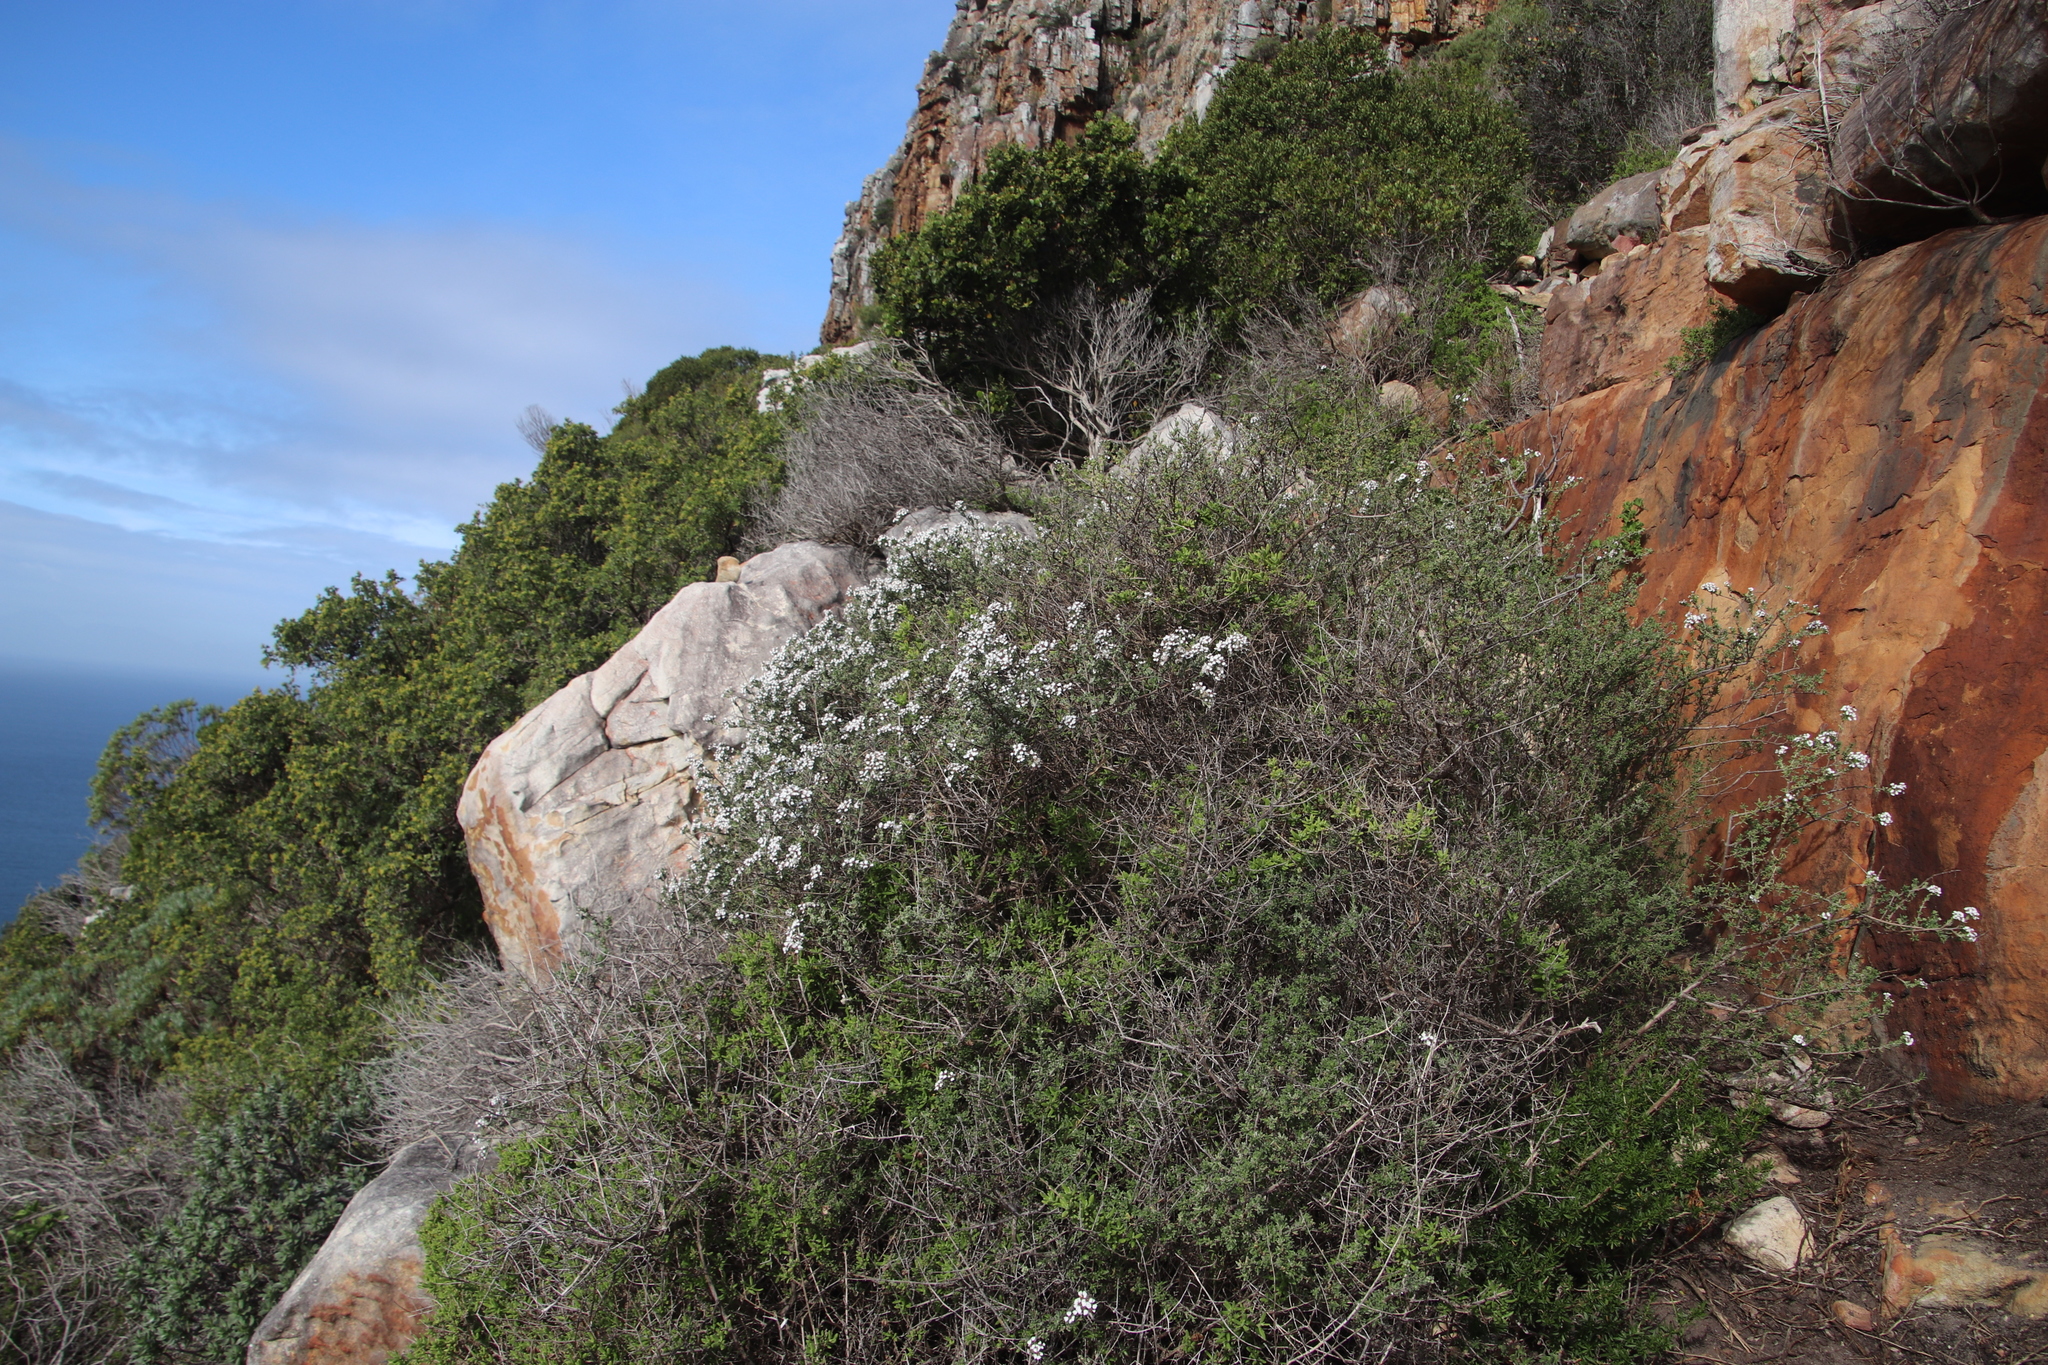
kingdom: Plantae
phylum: Tracheophyta
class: Magnoliopsida
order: Asterales
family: Asteraceae
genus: Eriocephalus
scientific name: Eriocephalus africanus
